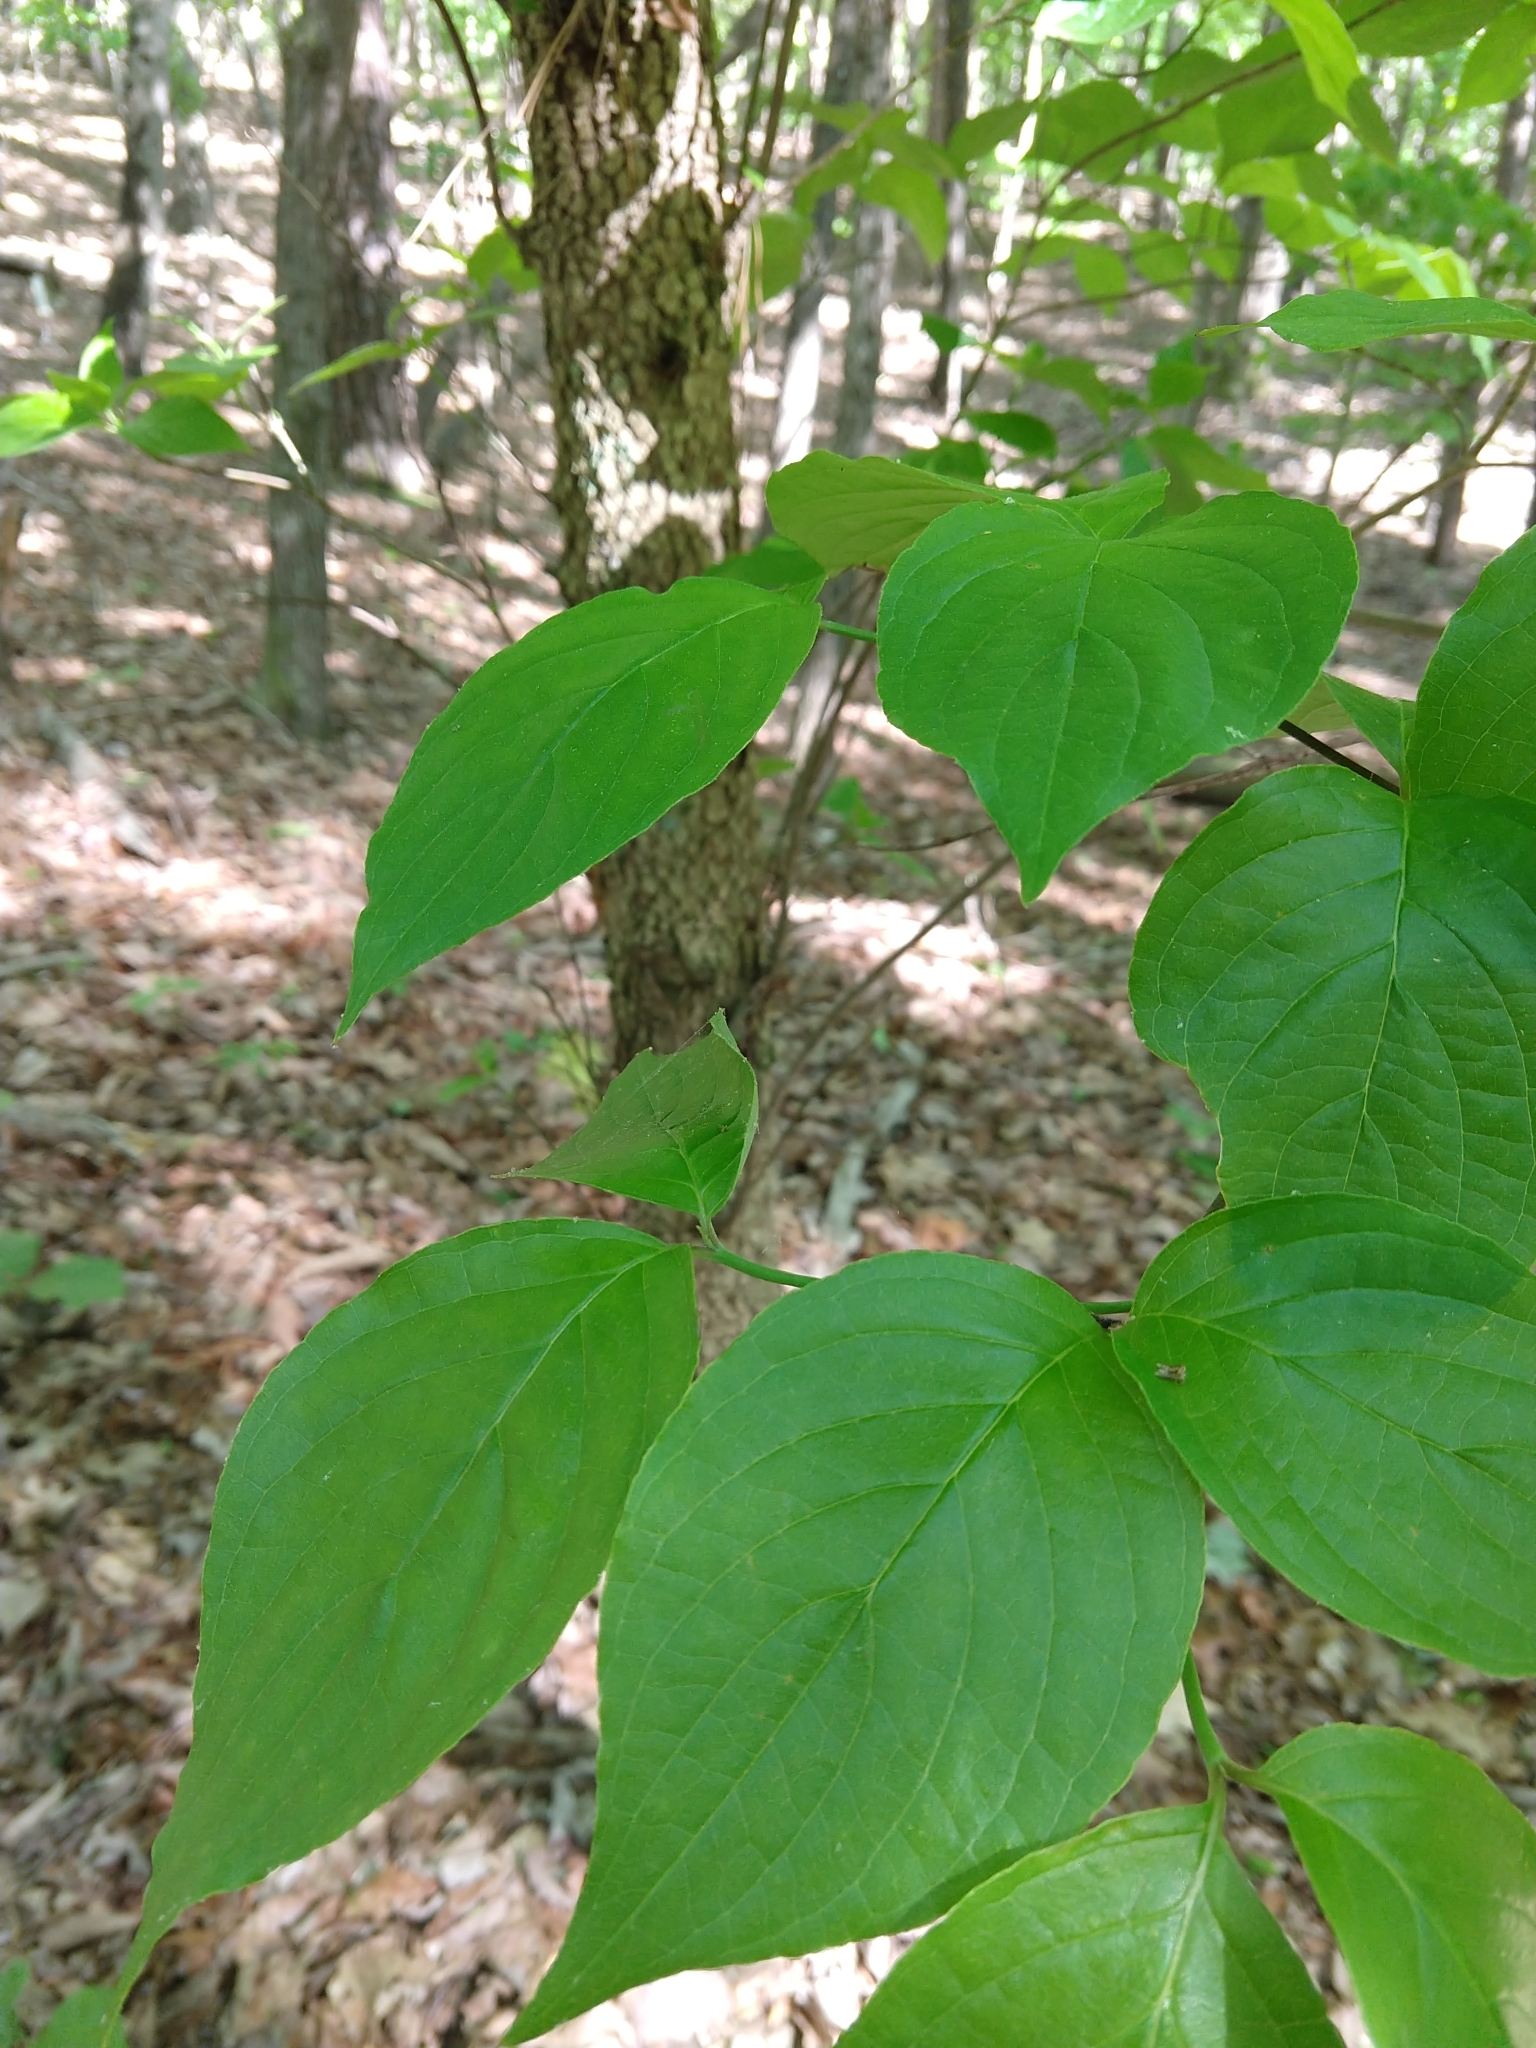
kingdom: Plantae
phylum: Tracheophyta
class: Magnoliopsida
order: Cornales
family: Cornaceae
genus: Cornus
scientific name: Cornus florida
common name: Flowering dogwood
